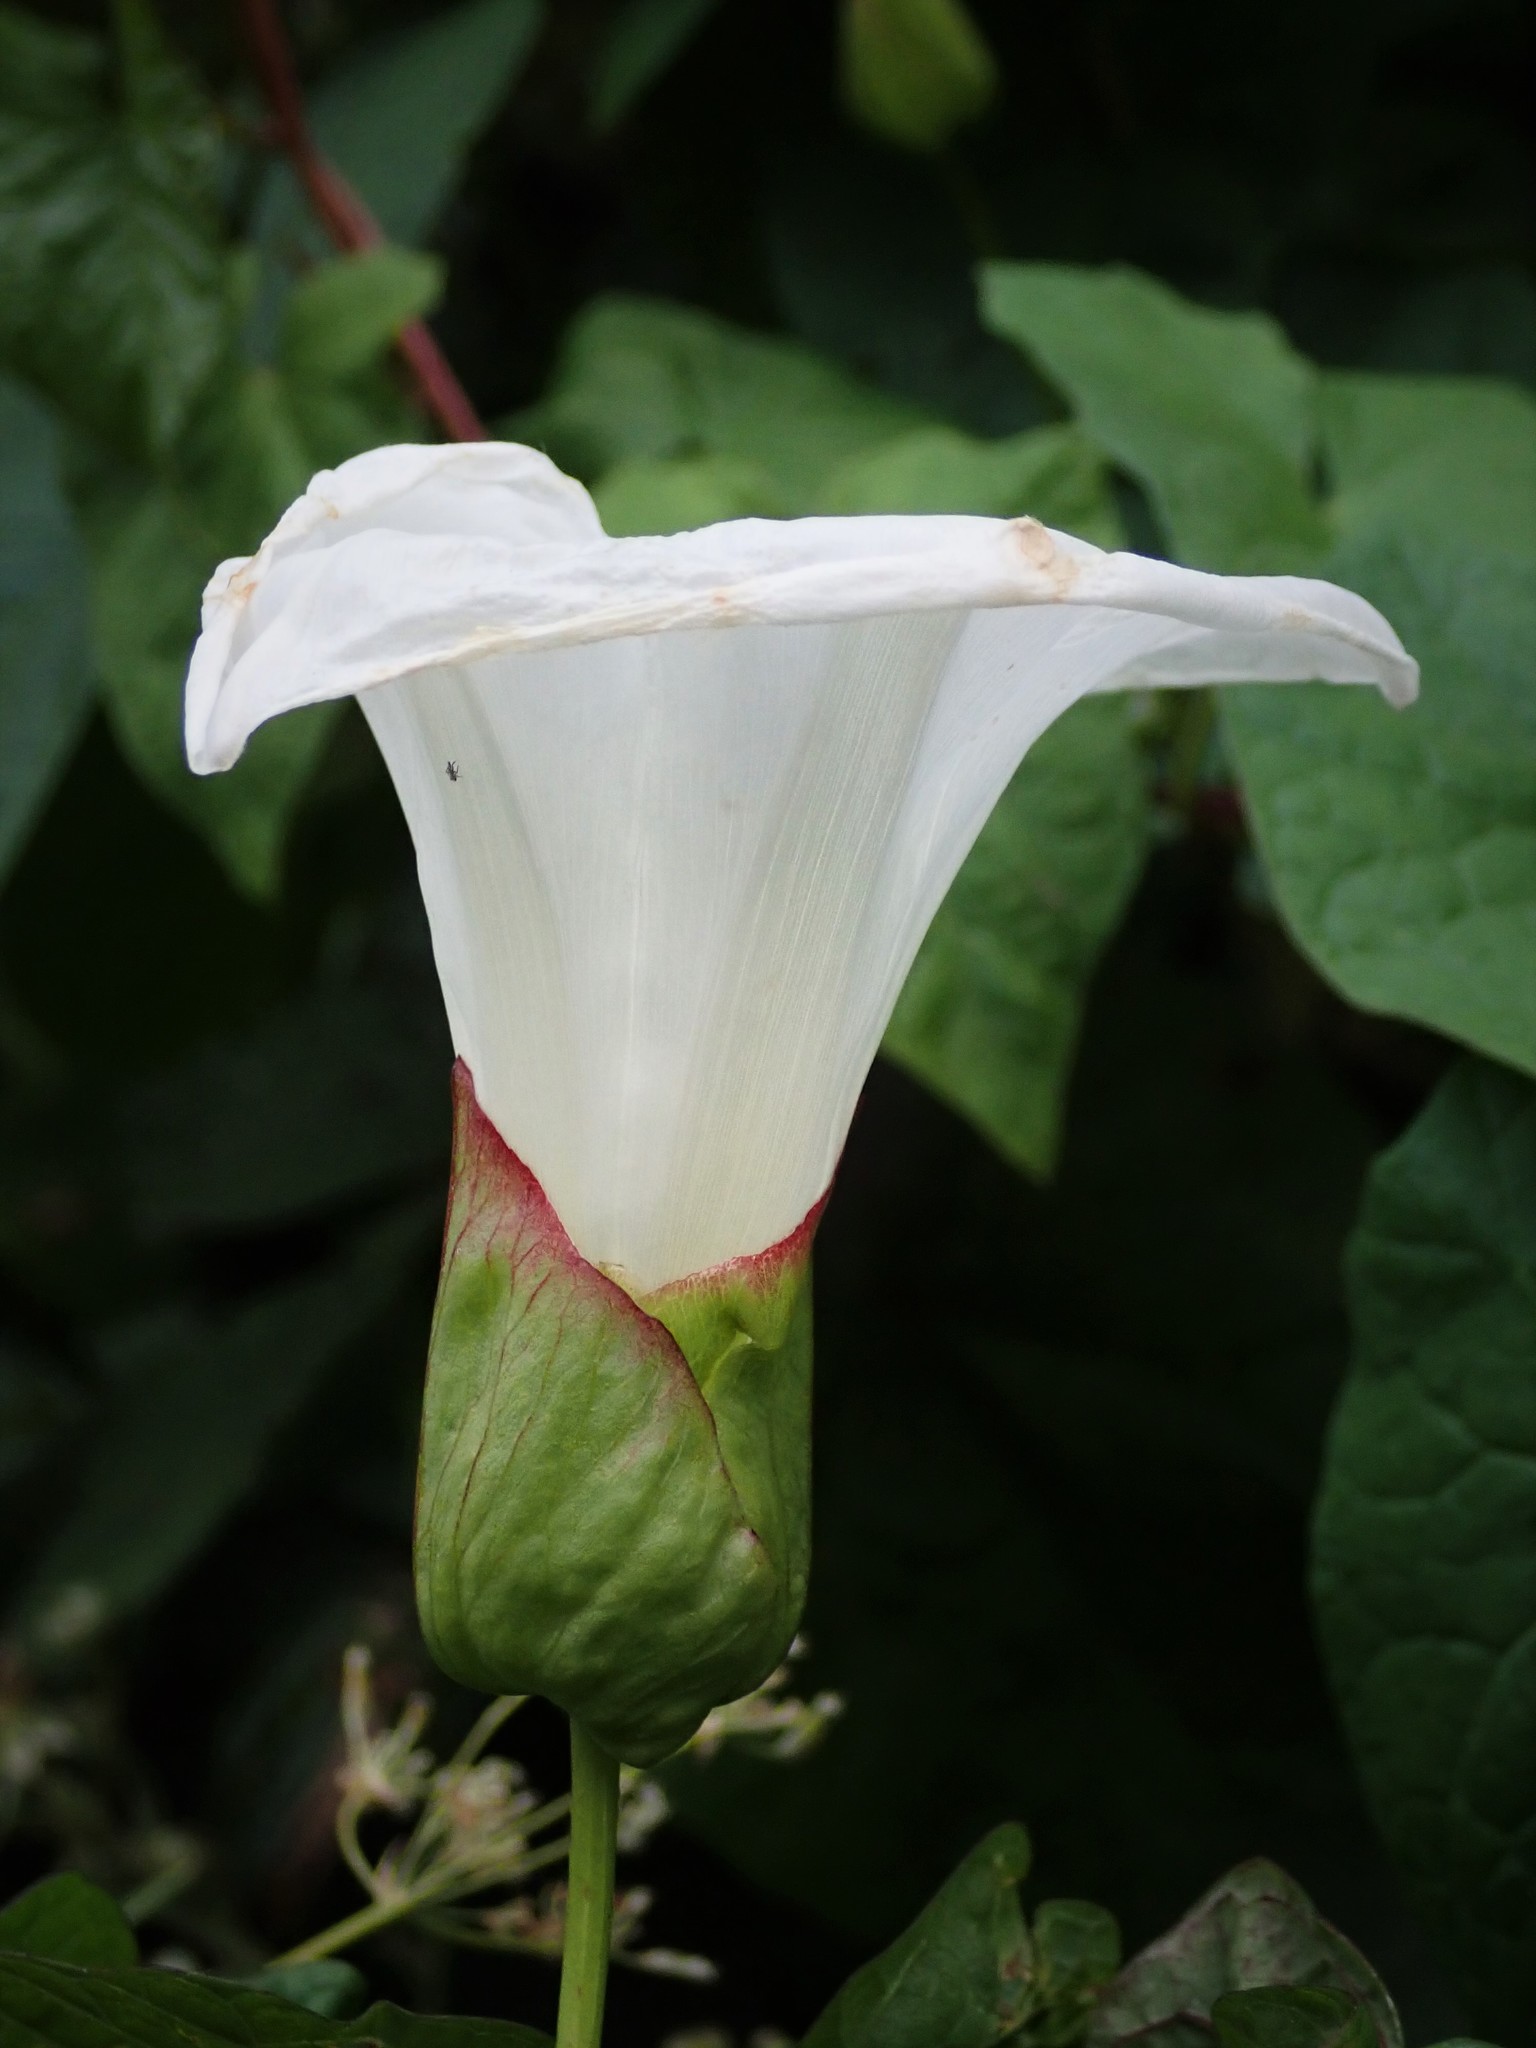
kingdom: Plantae
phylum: Tracheophyta
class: Magnoliopsida
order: Solanales
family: Convolvulaceae
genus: Calystegia
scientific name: Calystegia silvatica
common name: Large bindweed
